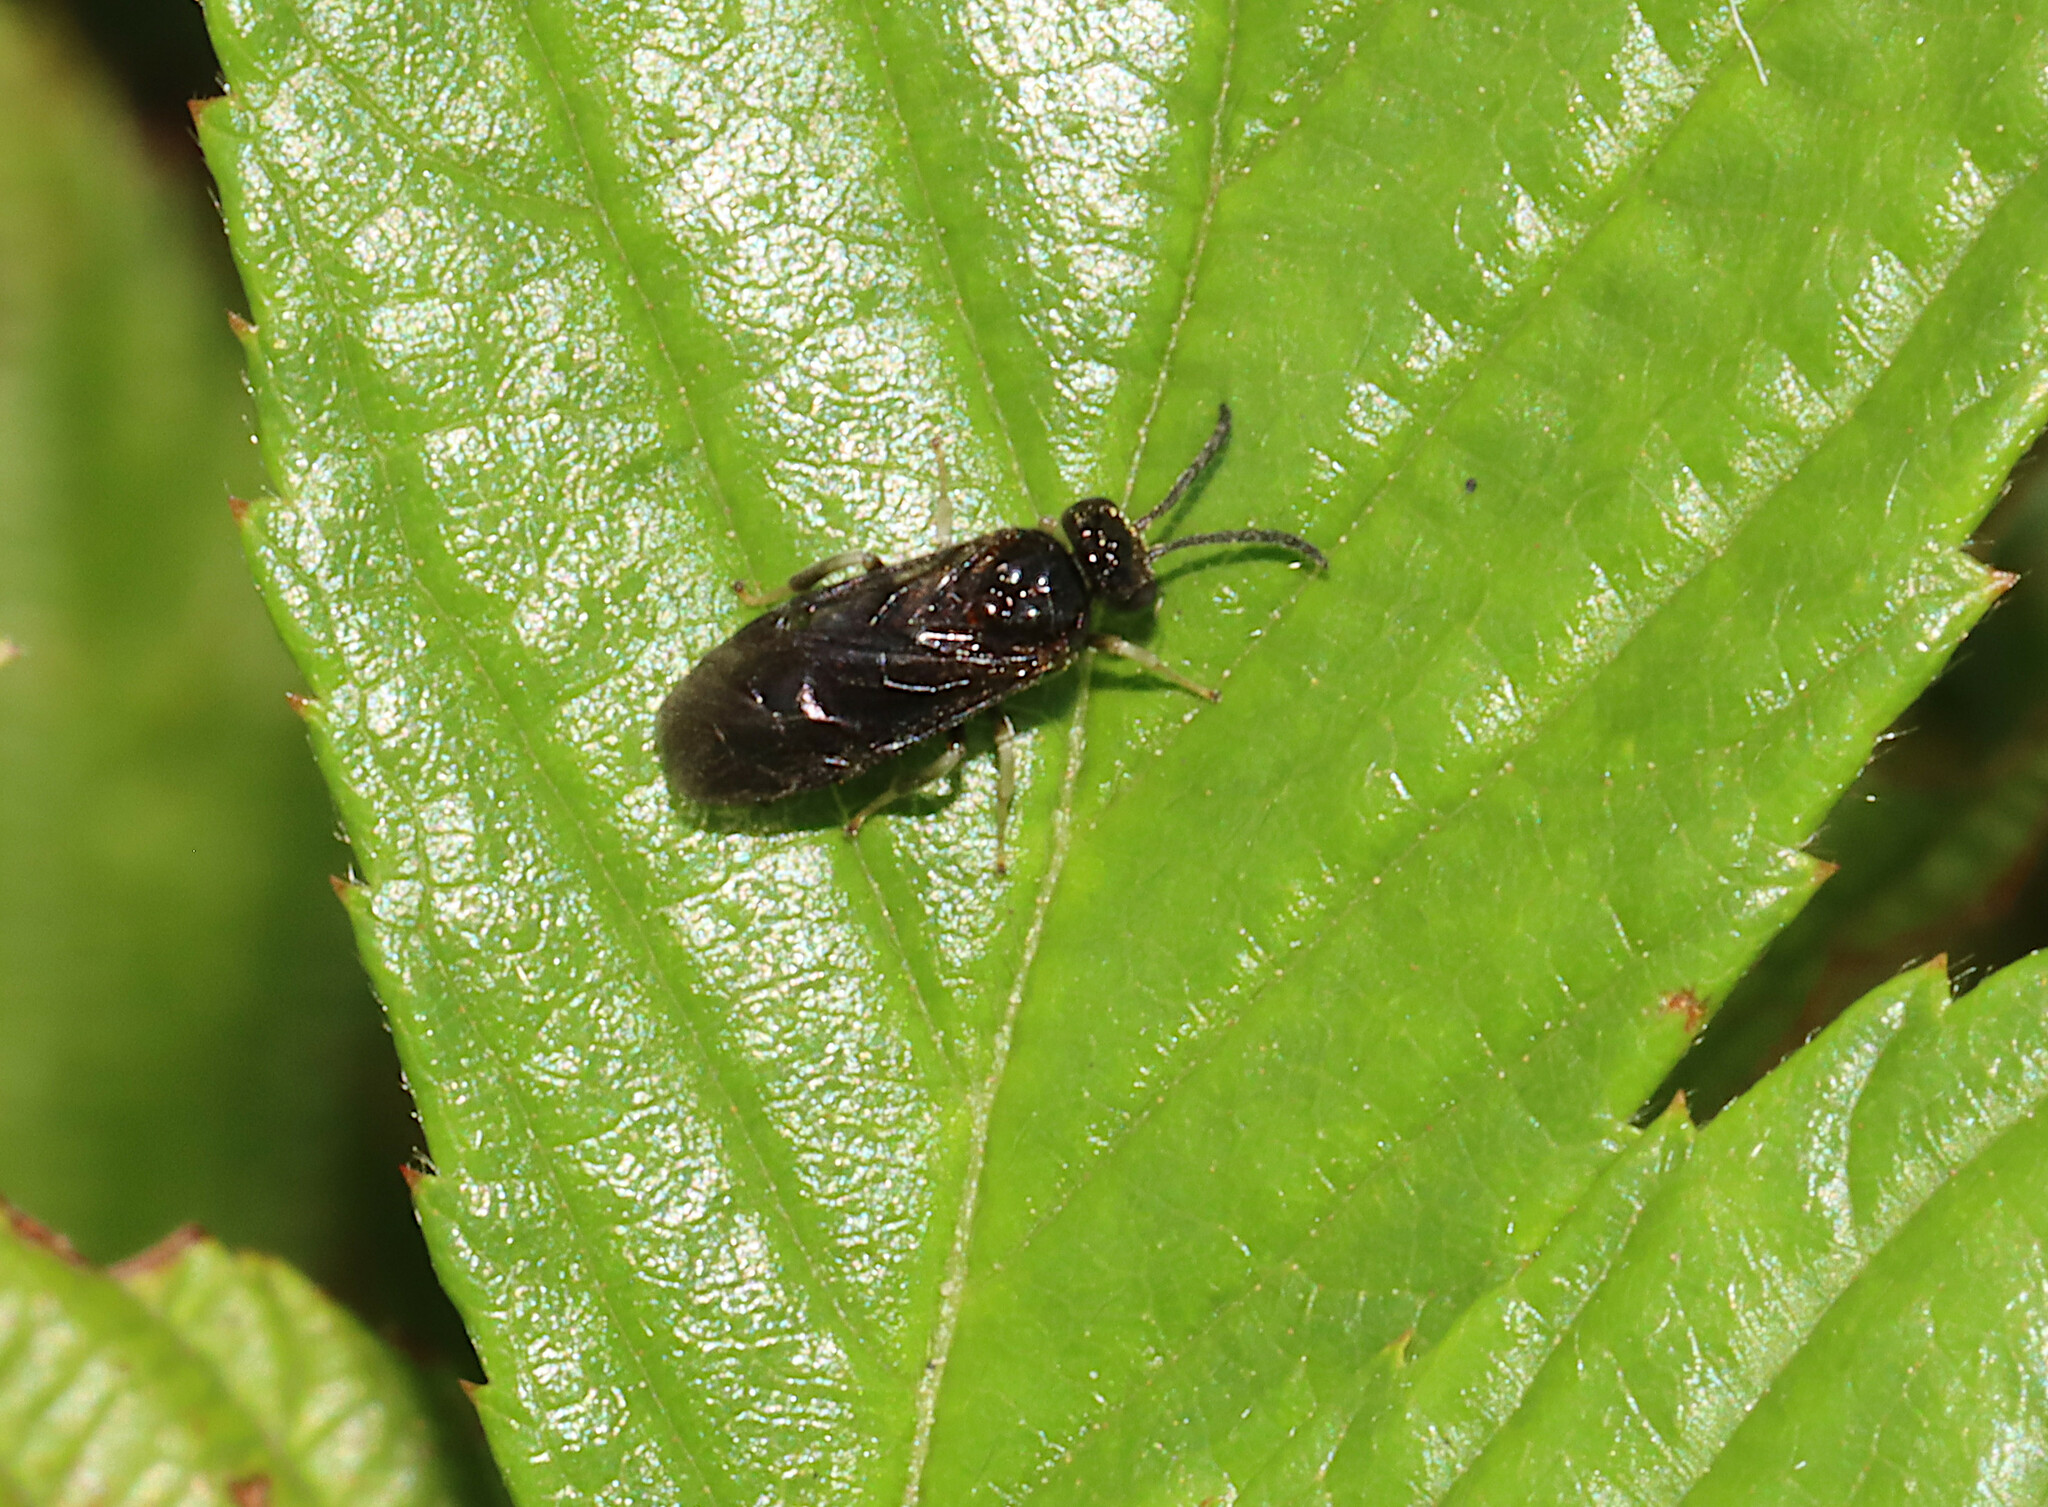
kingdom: Animalia
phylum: Arthropoda
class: Insecta
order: Hymenoptera
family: Argidae
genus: Sphacophilus
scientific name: Sphacophilus cellularis
